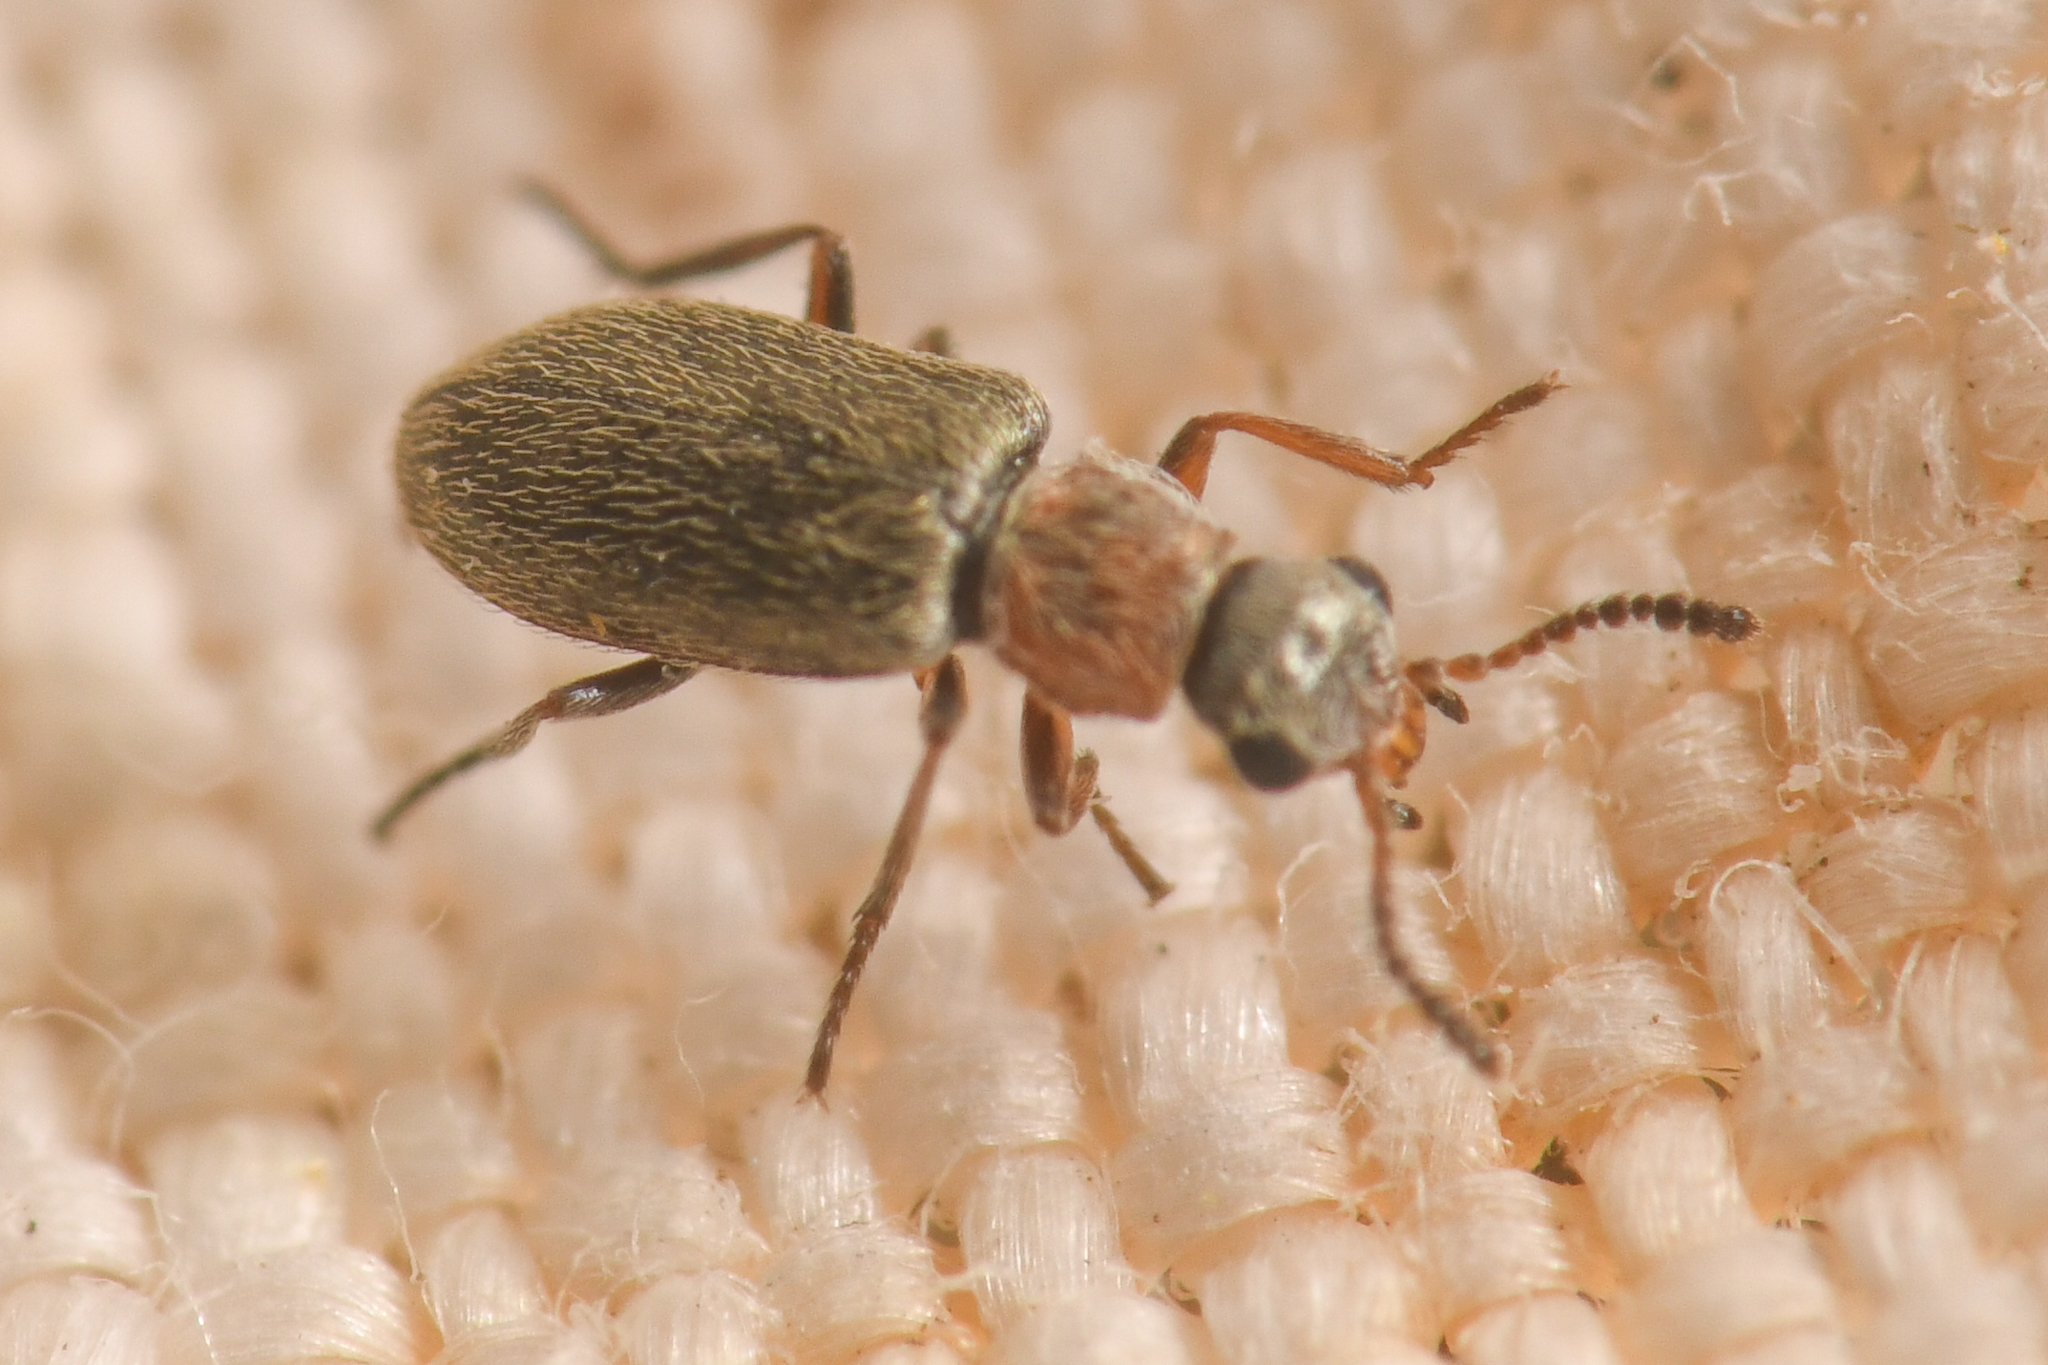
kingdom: Animalia
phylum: Arthropoda
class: Insecta
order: Coleoptera
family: Melyridae
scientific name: Melyridae
